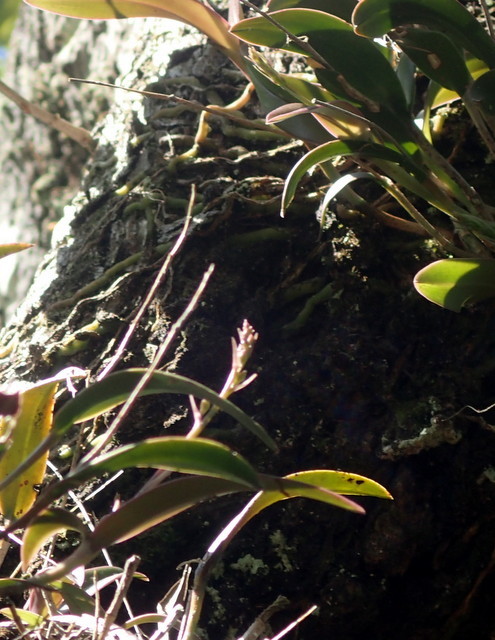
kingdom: Plantae
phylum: Tracheophyta
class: Liliopsida
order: Asparagales
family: Orchidaceae
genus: Epidendrum
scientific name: Epidendrum conopseum
